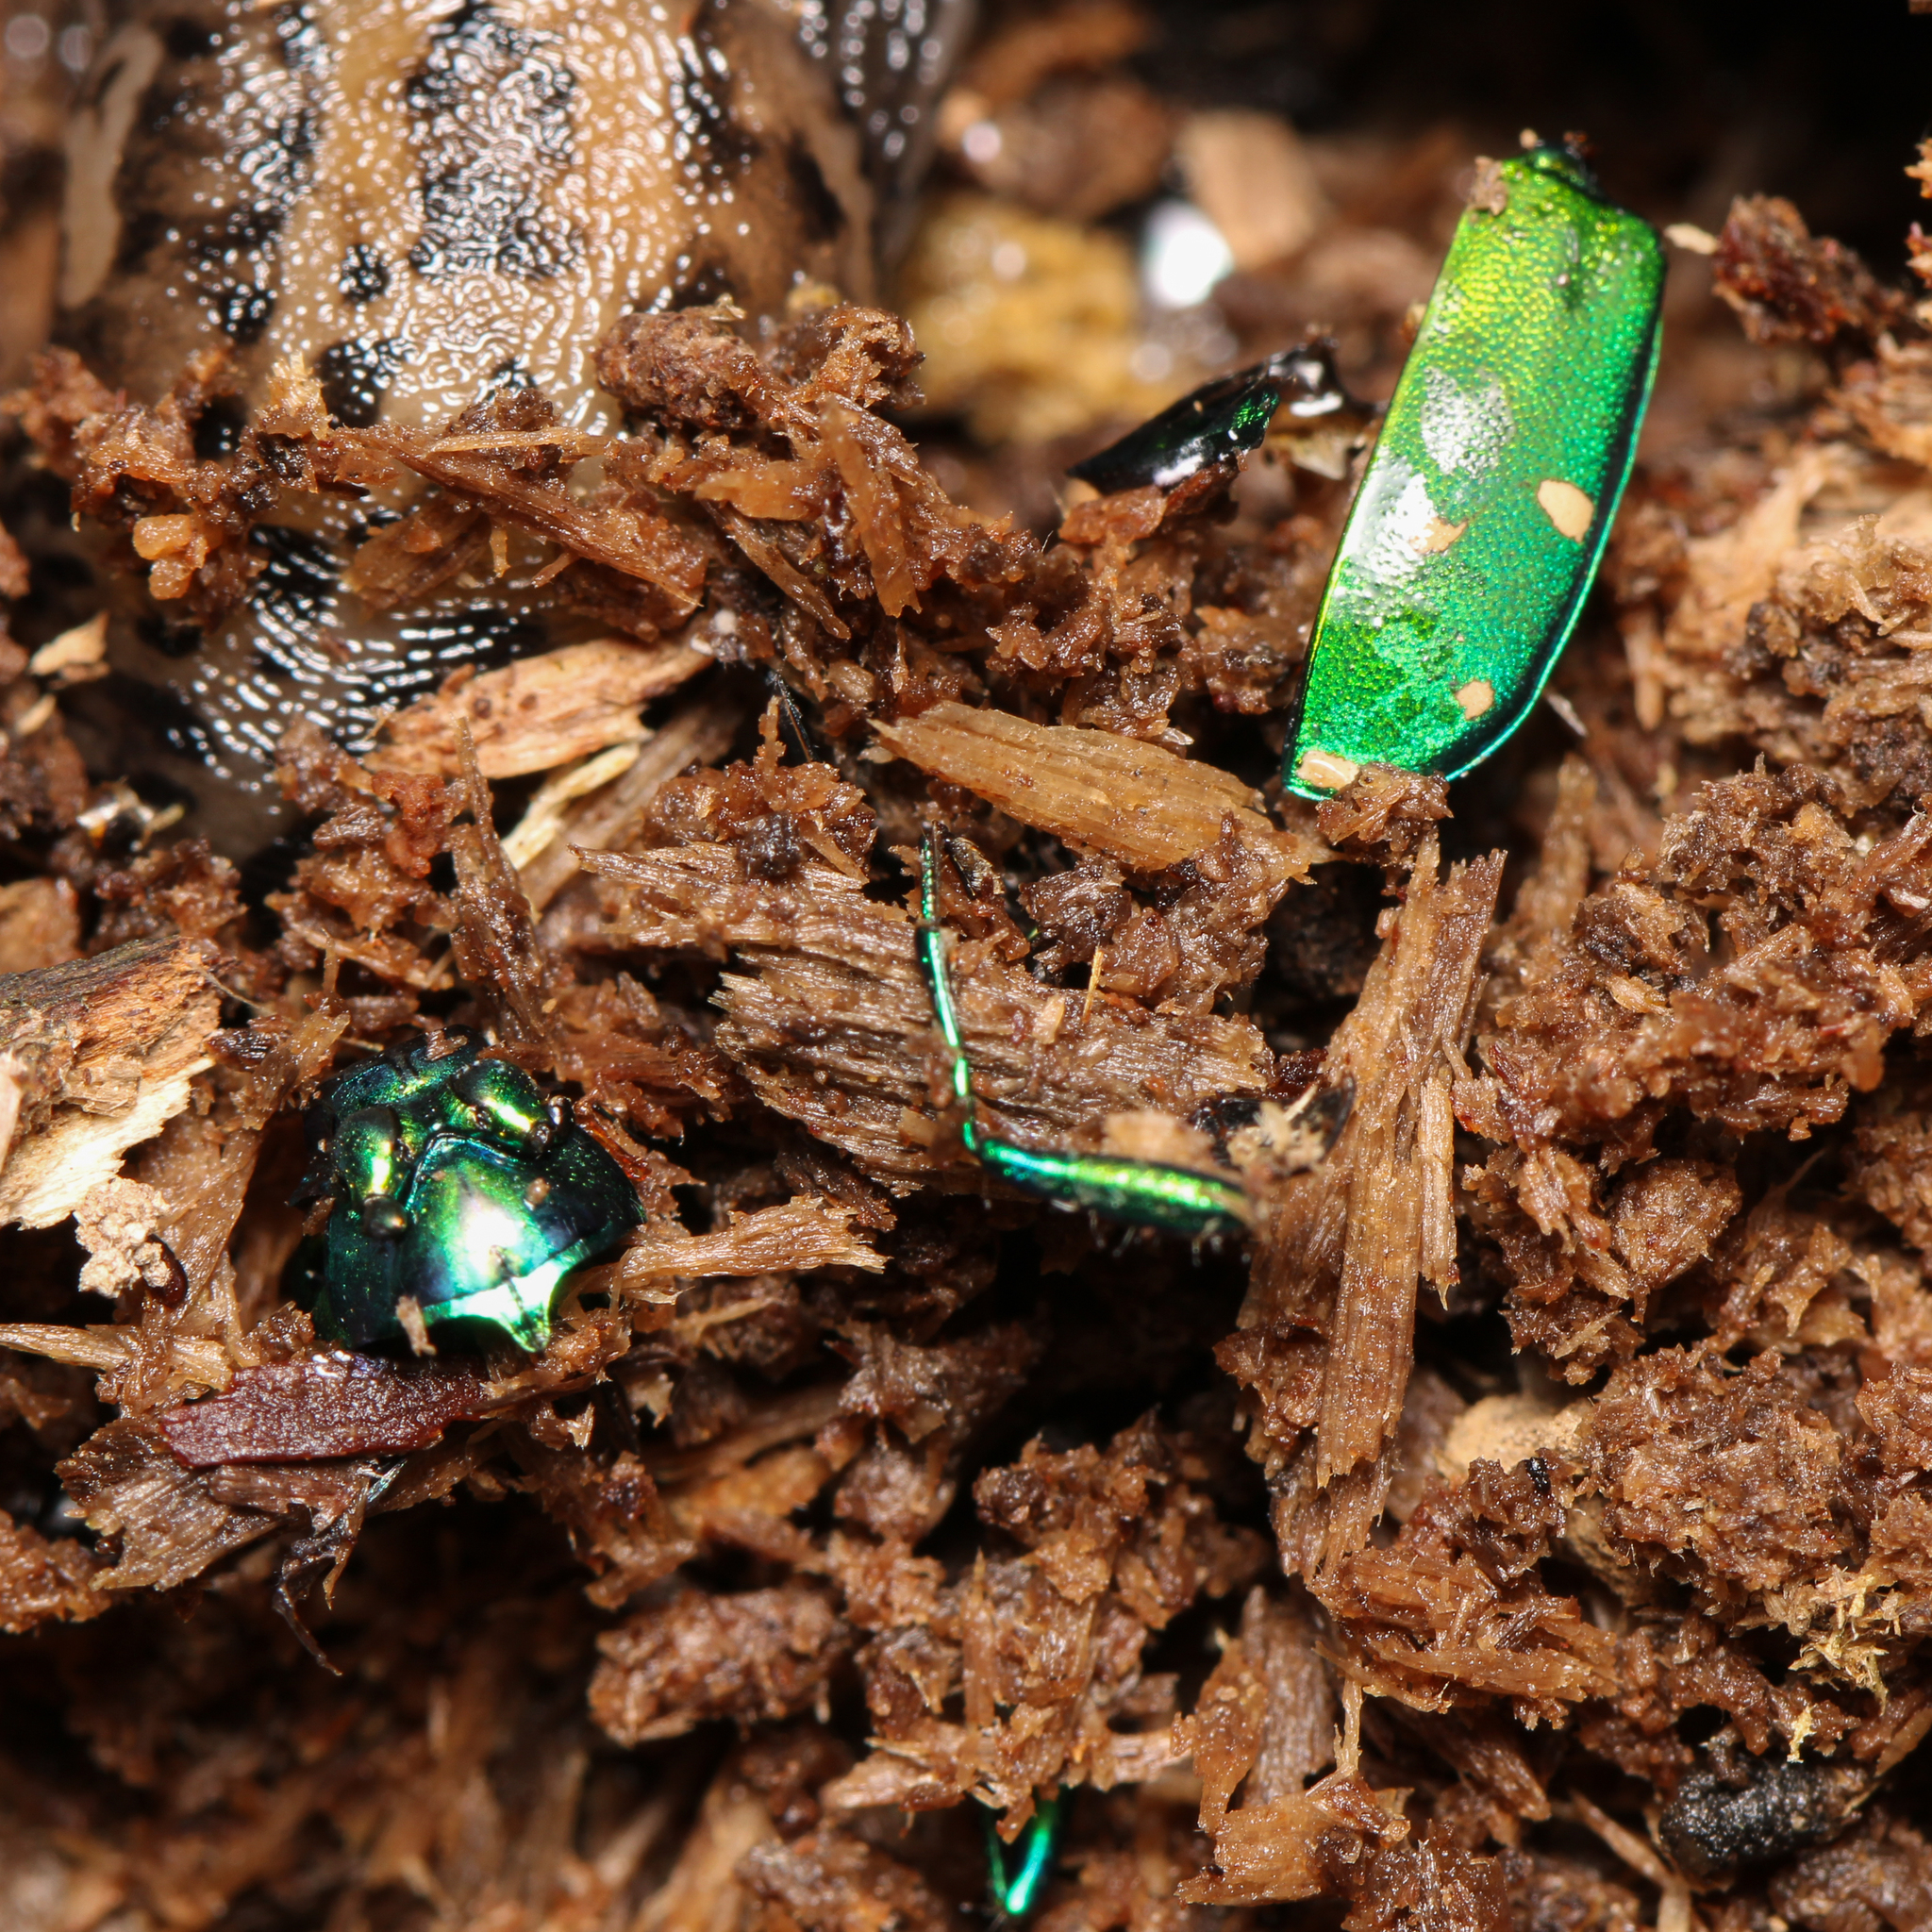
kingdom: Animalia
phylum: Arthropoda
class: Insecta
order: Coleoptera
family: Carabidae
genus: Cicindela
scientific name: Cicindela sexguttata
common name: Six-spotted tiger beetle
